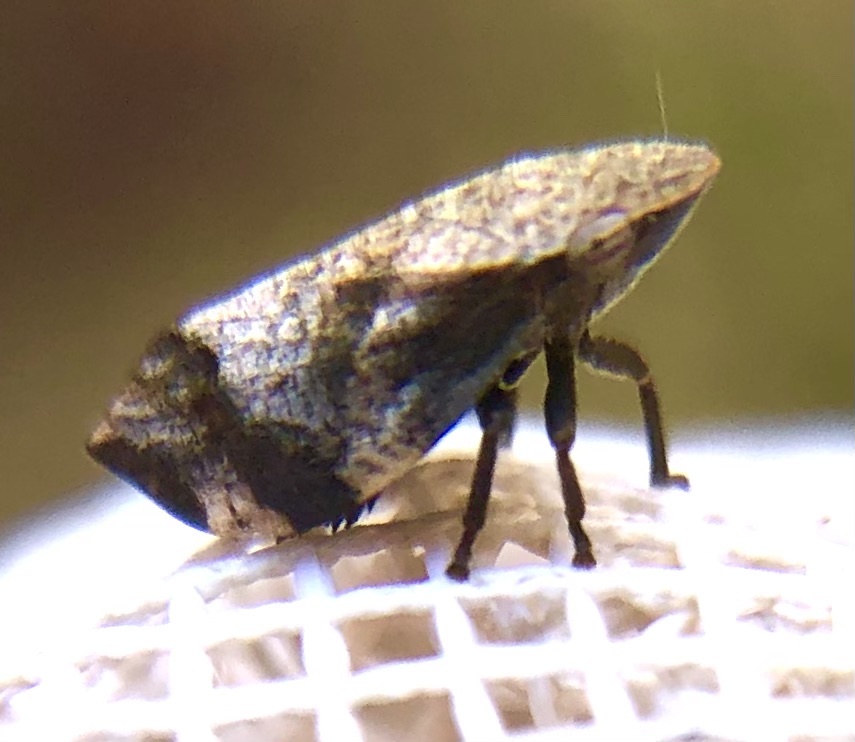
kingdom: Animalia
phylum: Arthropoda
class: Insecta
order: Hemiptera
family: Aphrophoridae
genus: Lepyronia
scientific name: Lepyronia quadrangularis
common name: Diamond-backed spittlebug
